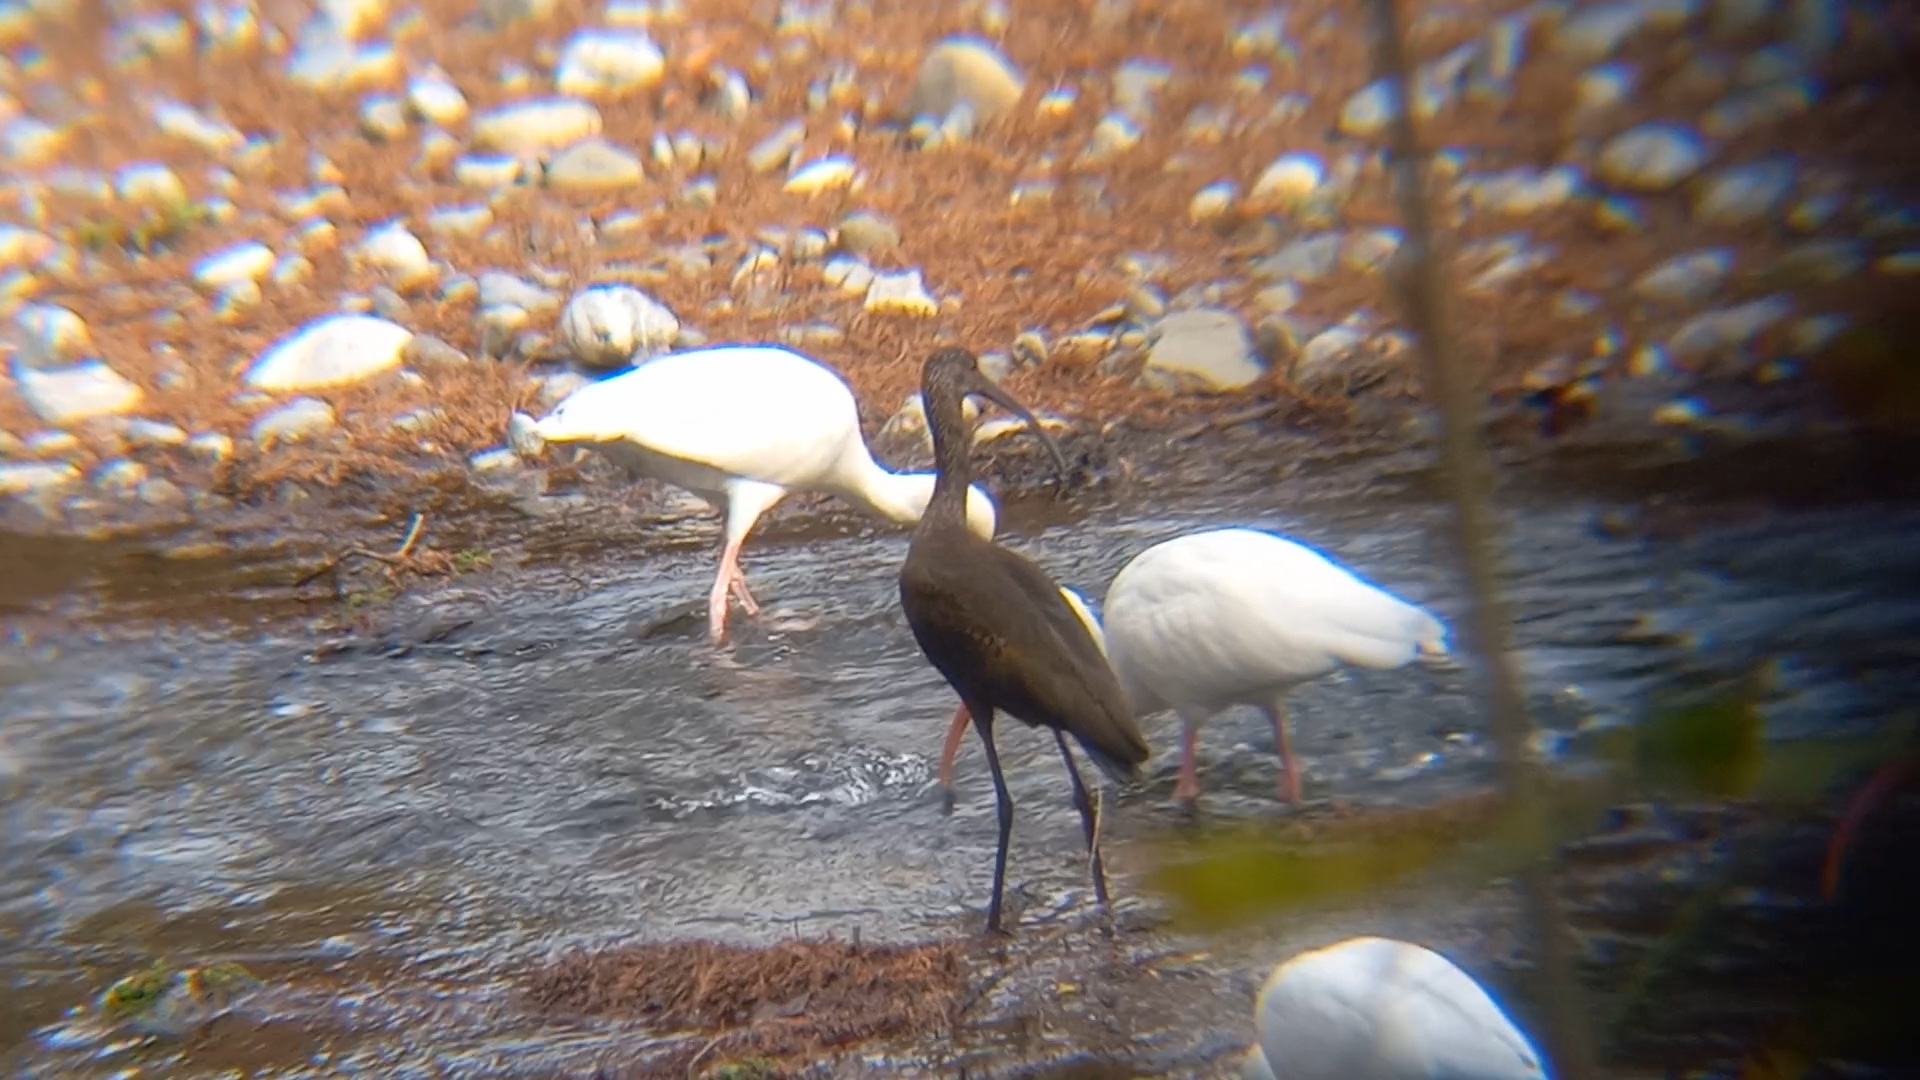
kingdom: Animalia
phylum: Chordata
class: Aves
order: Pelecaniformes
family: Threskiornithidae
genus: Plegadis
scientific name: Plegadis chihi
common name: White-faced ibis
